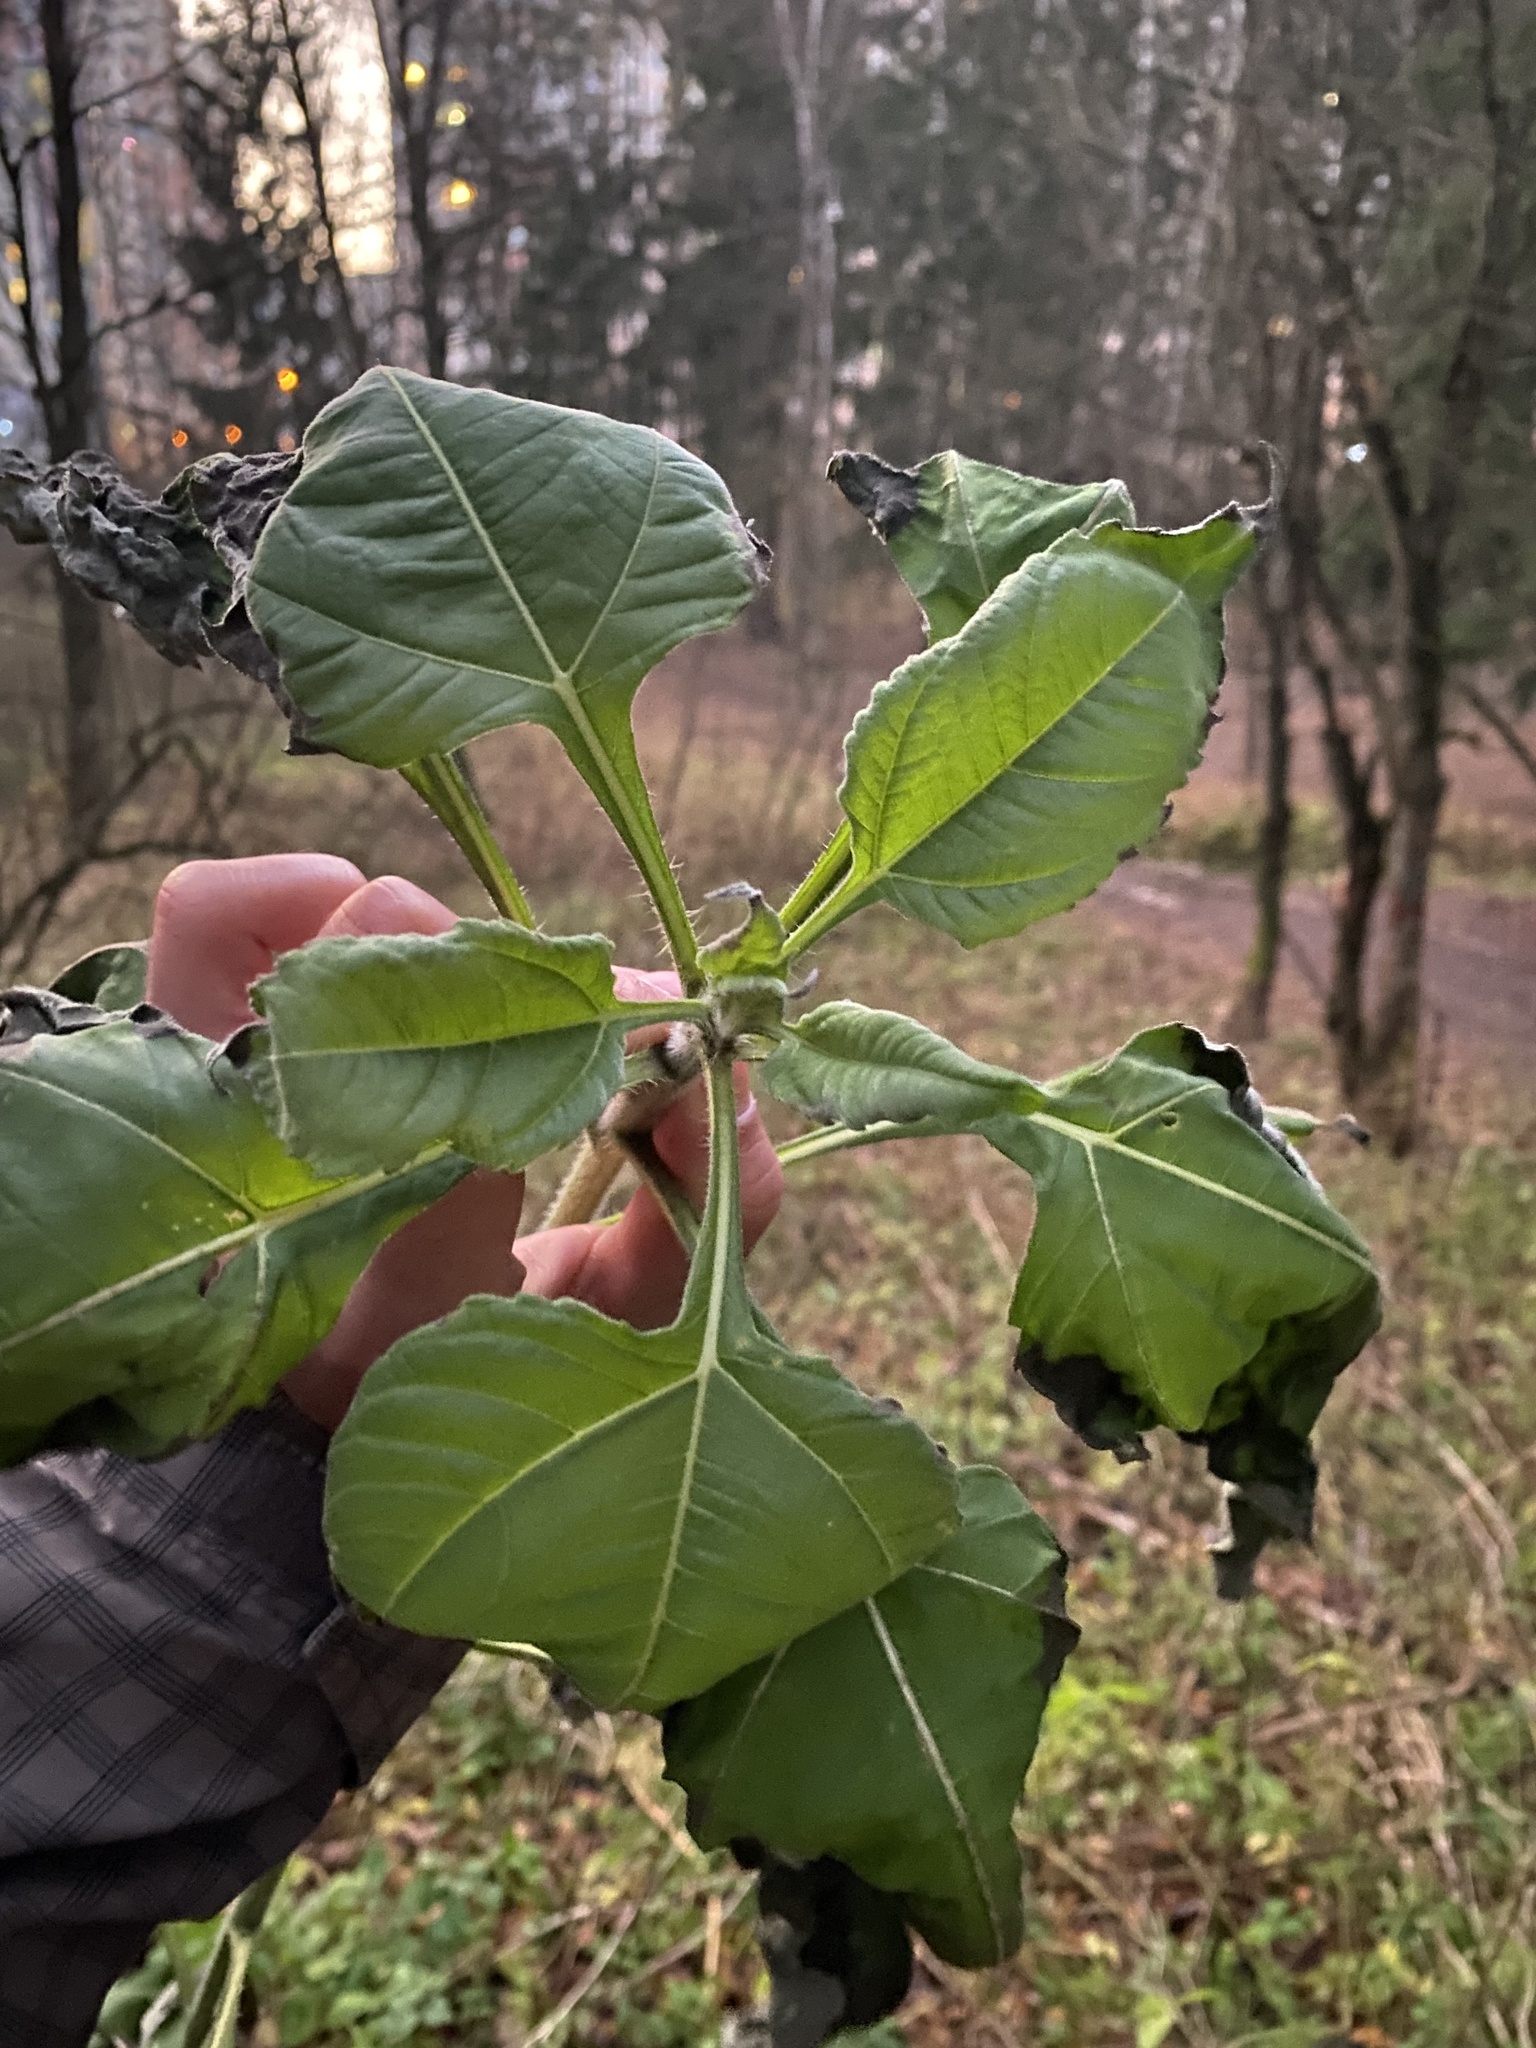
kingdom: Plantae
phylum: Tracheophyta
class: Magnoliopsida
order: Asterales
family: Asteraceae
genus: Helianthus
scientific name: Helianthus annuus
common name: Sunflower
